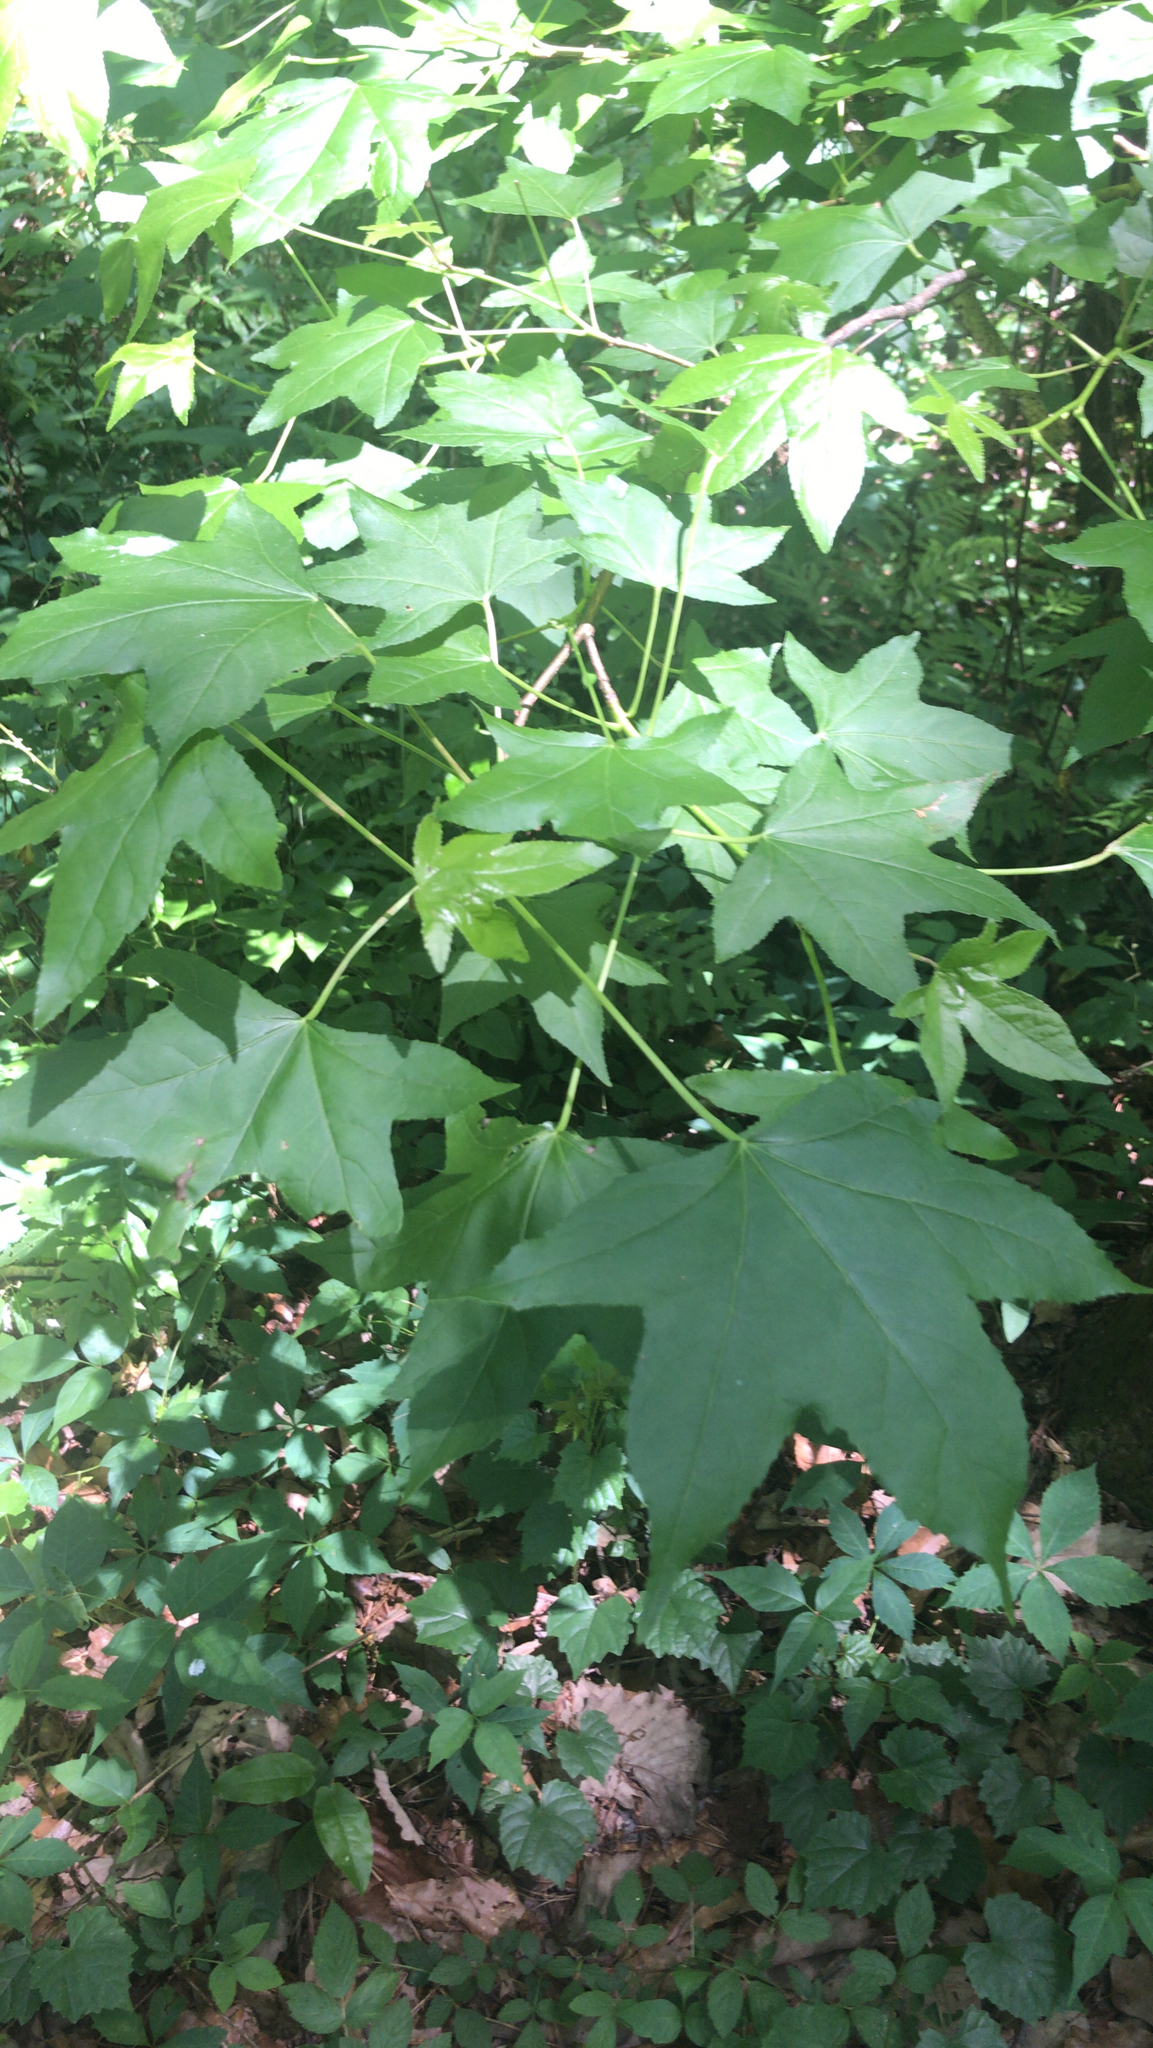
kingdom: Plantae
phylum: Tracheophyta
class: Magnoliopsida
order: Saxifragales
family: Altingiaceae
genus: Liquidambar
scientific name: Liquidambar styraciflua
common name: Sweet gum
